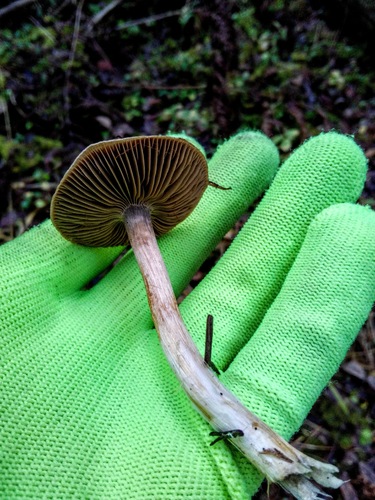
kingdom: Fungi
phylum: Basidiomycota
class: Agaricomycetes
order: Agaricales
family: Cortinariaceae
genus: Cortinarius
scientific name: Cortinarius
